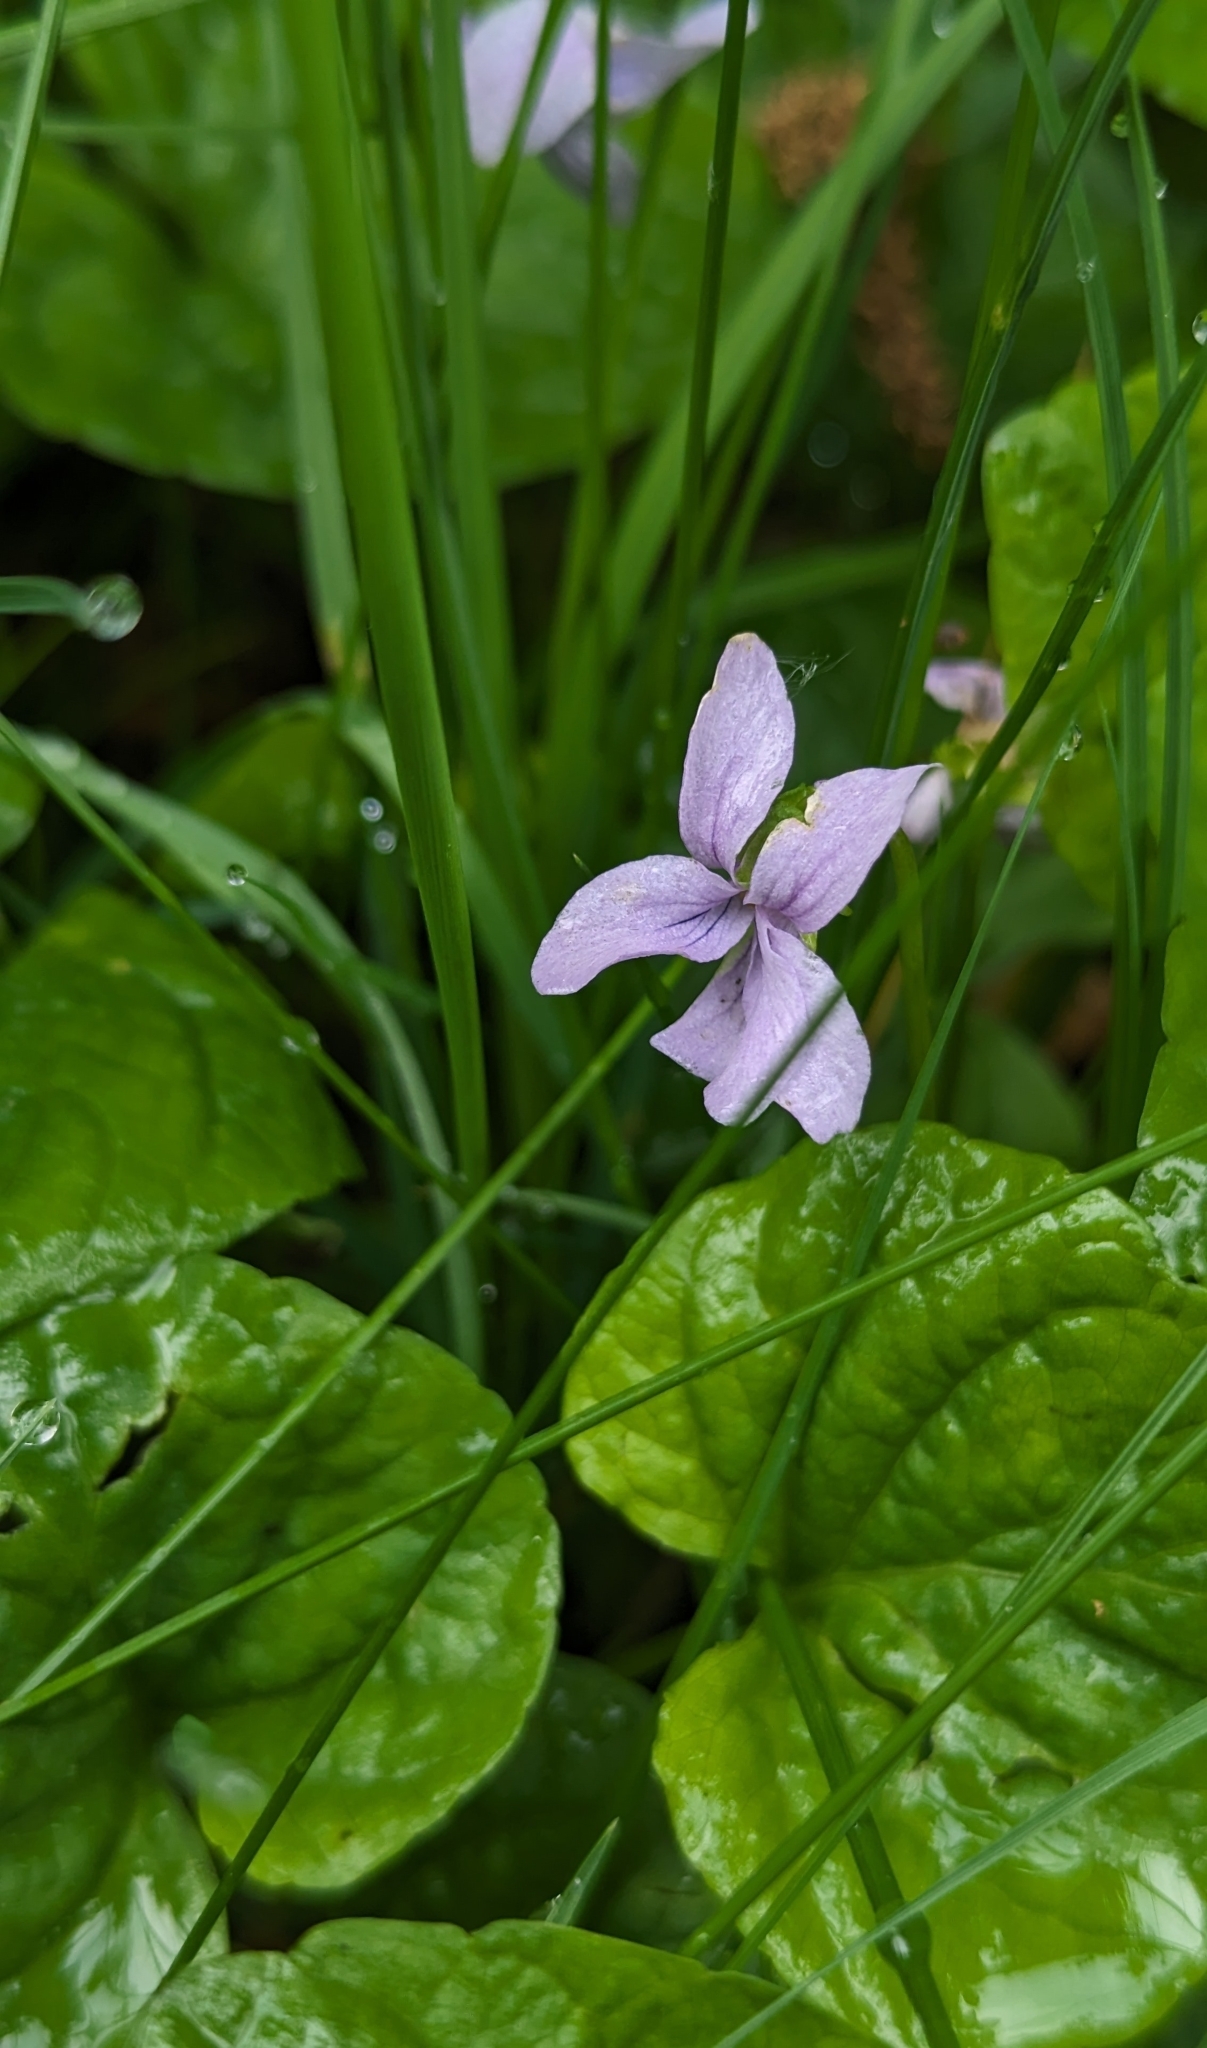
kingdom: Plantae
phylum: Tracheophyta
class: Magnoliopsida
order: Malpighiales
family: Violaceae
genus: Viola
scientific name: Viola palustris
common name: Marsh violet
